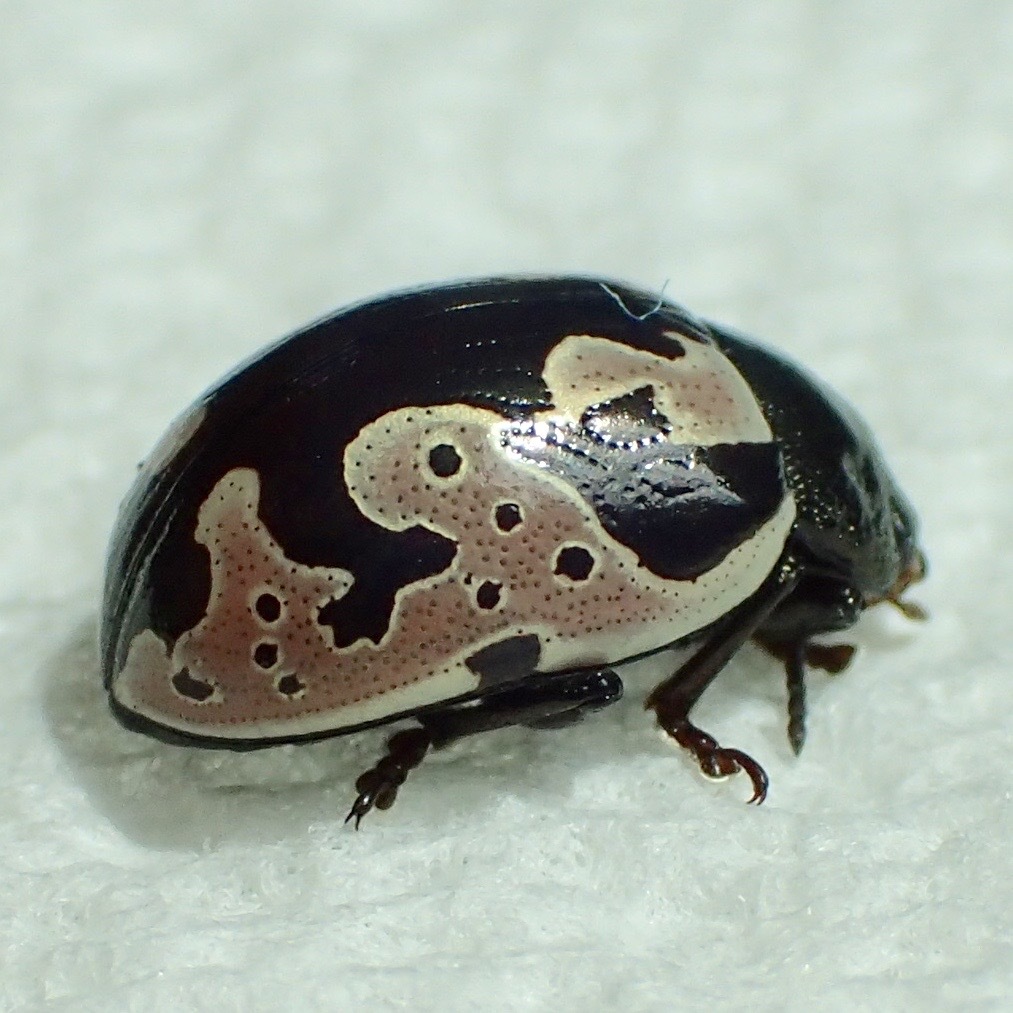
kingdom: Animalia
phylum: Arthropoda
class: Insecta
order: Coleoptera
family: Chrysomelidae
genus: Calligrapha
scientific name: Calligrapha ancoralis
